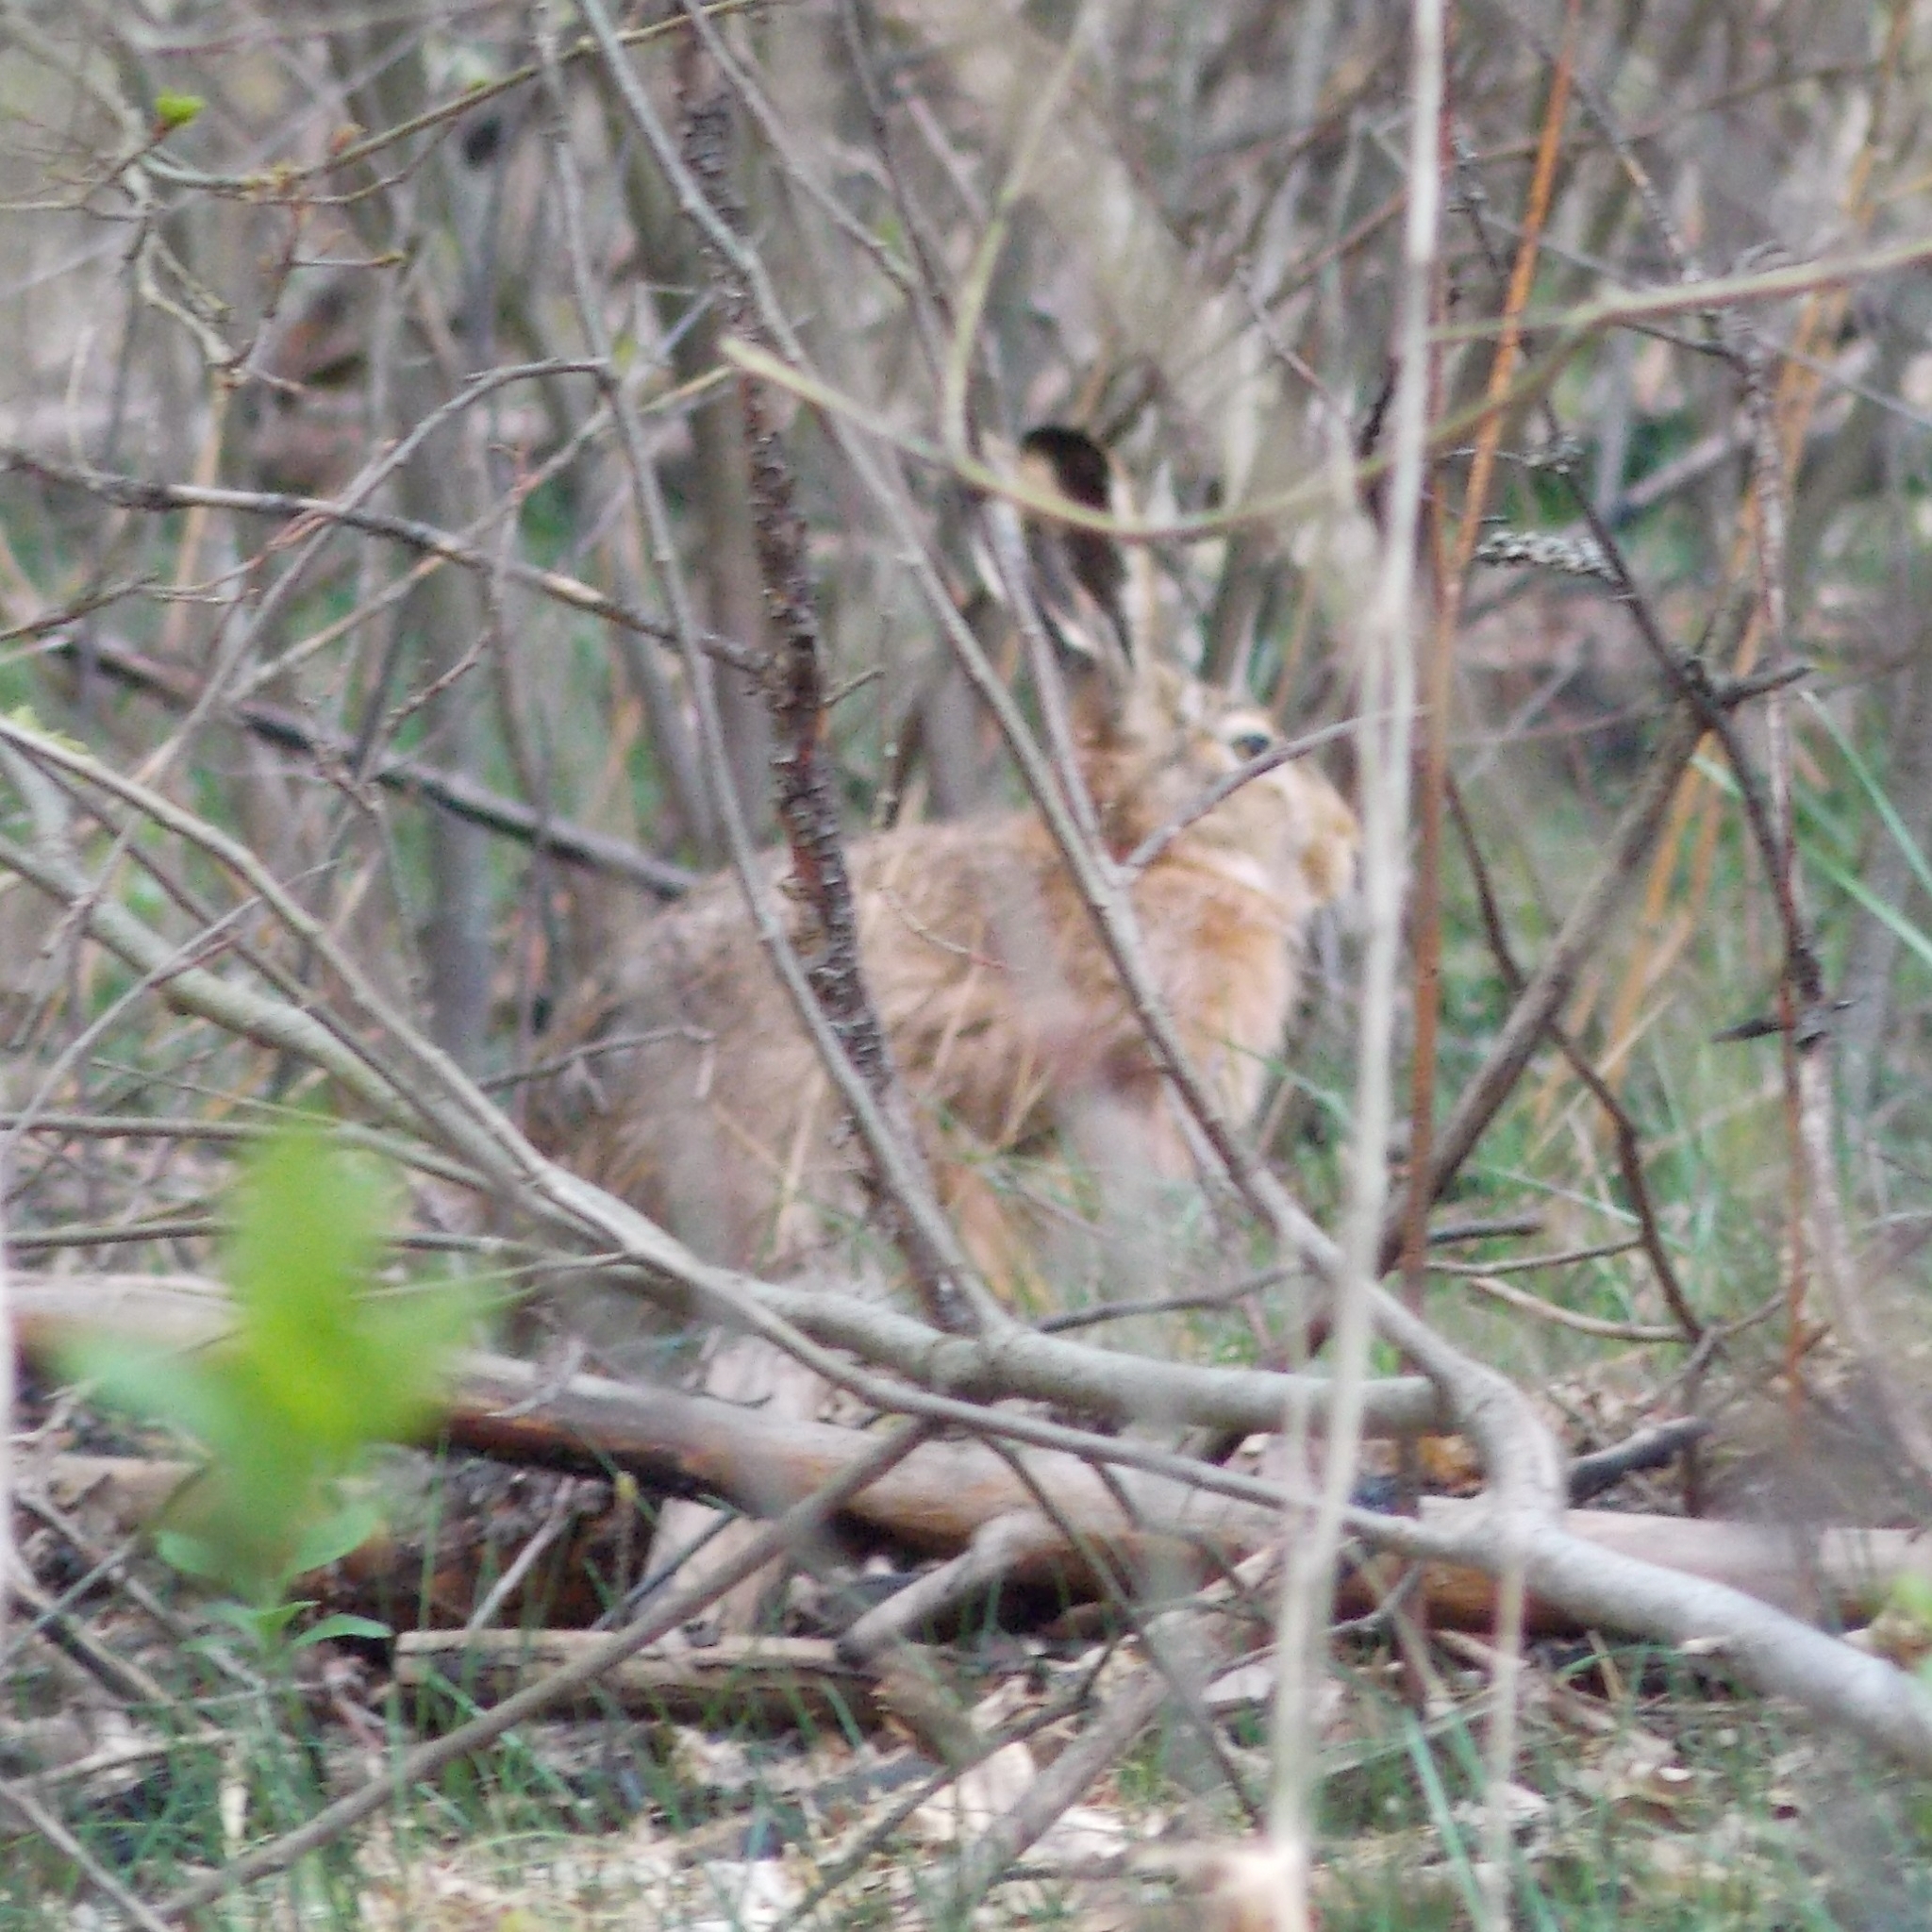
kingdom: Animalia
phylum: Chordata
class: Mammalia
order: Lagomorpha
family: Leporidae
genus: Lepus
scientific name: Lepus europaeus
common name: European hare
